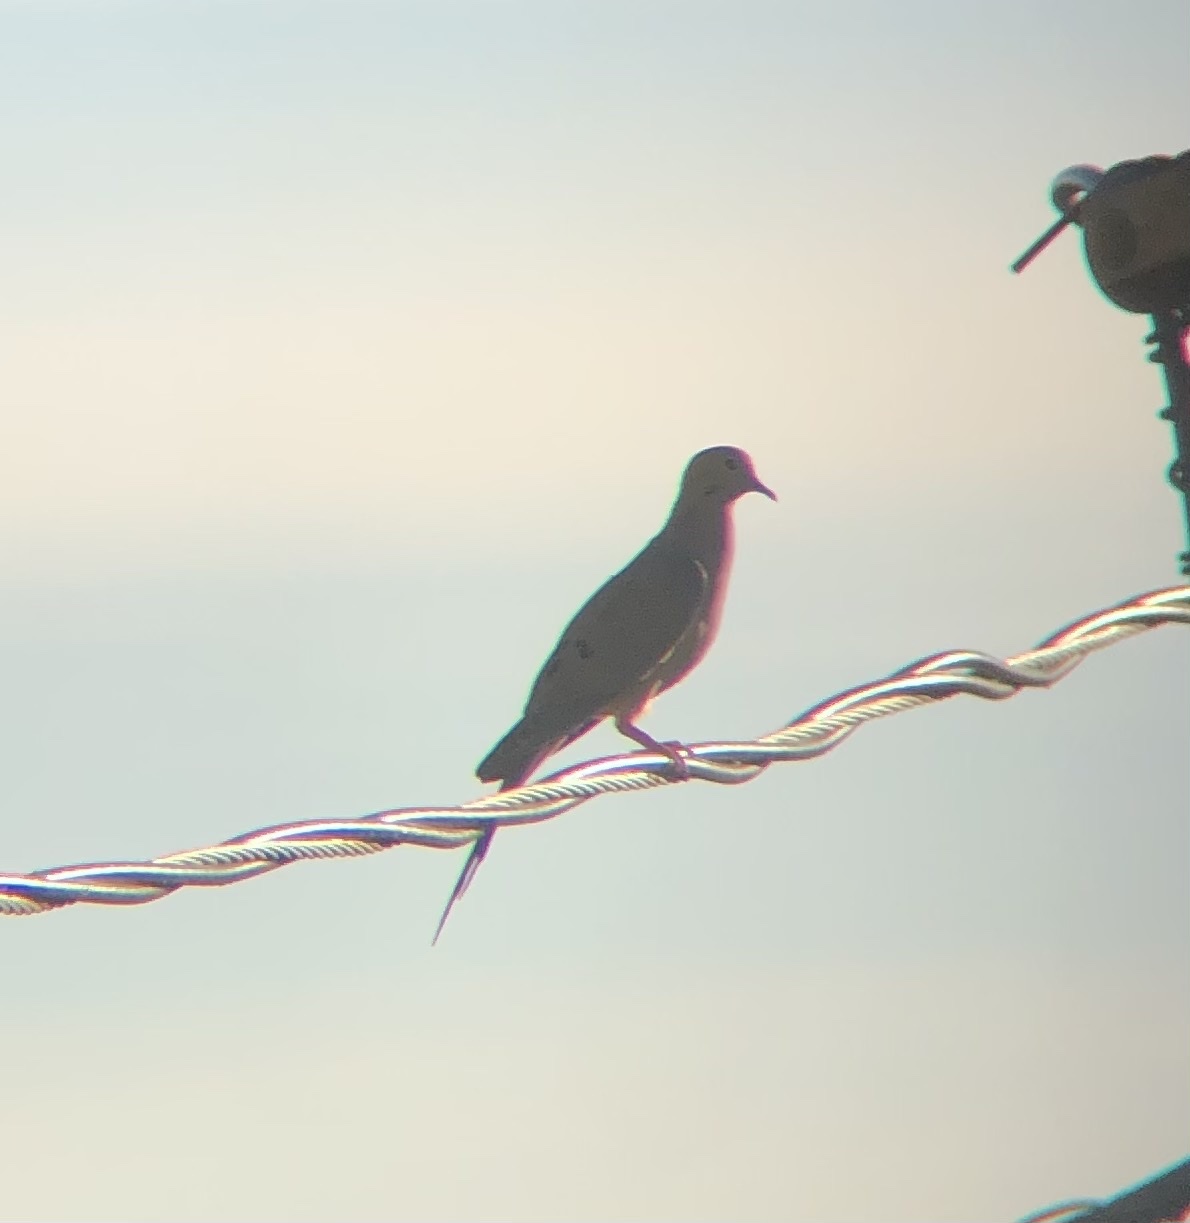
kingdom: Animalia
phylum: Chordata
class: Aves
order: Columbiformes
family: Columbidae
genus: Zenaida
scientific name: Zenaida macroura
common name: Mourning dove
